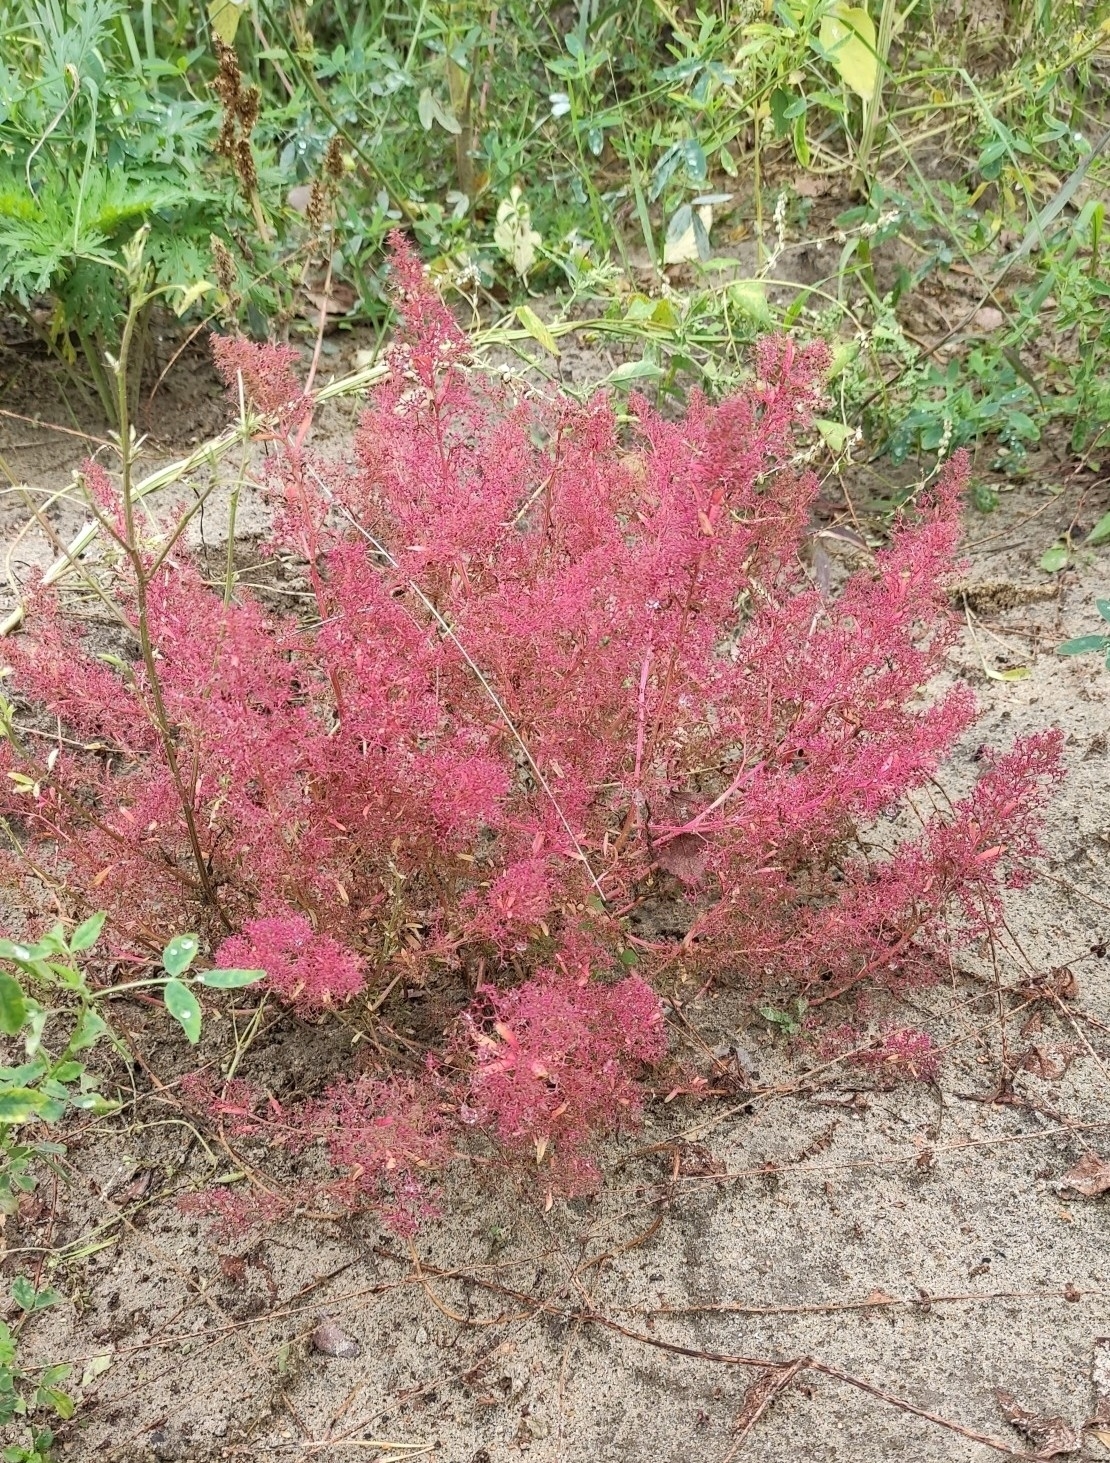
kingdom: Plantae
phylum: Tracheophyta
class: Magnoliopsida
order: Caryophyllales
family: Amaranthaceae
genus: Teloxys
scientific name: Teloxys aristata
